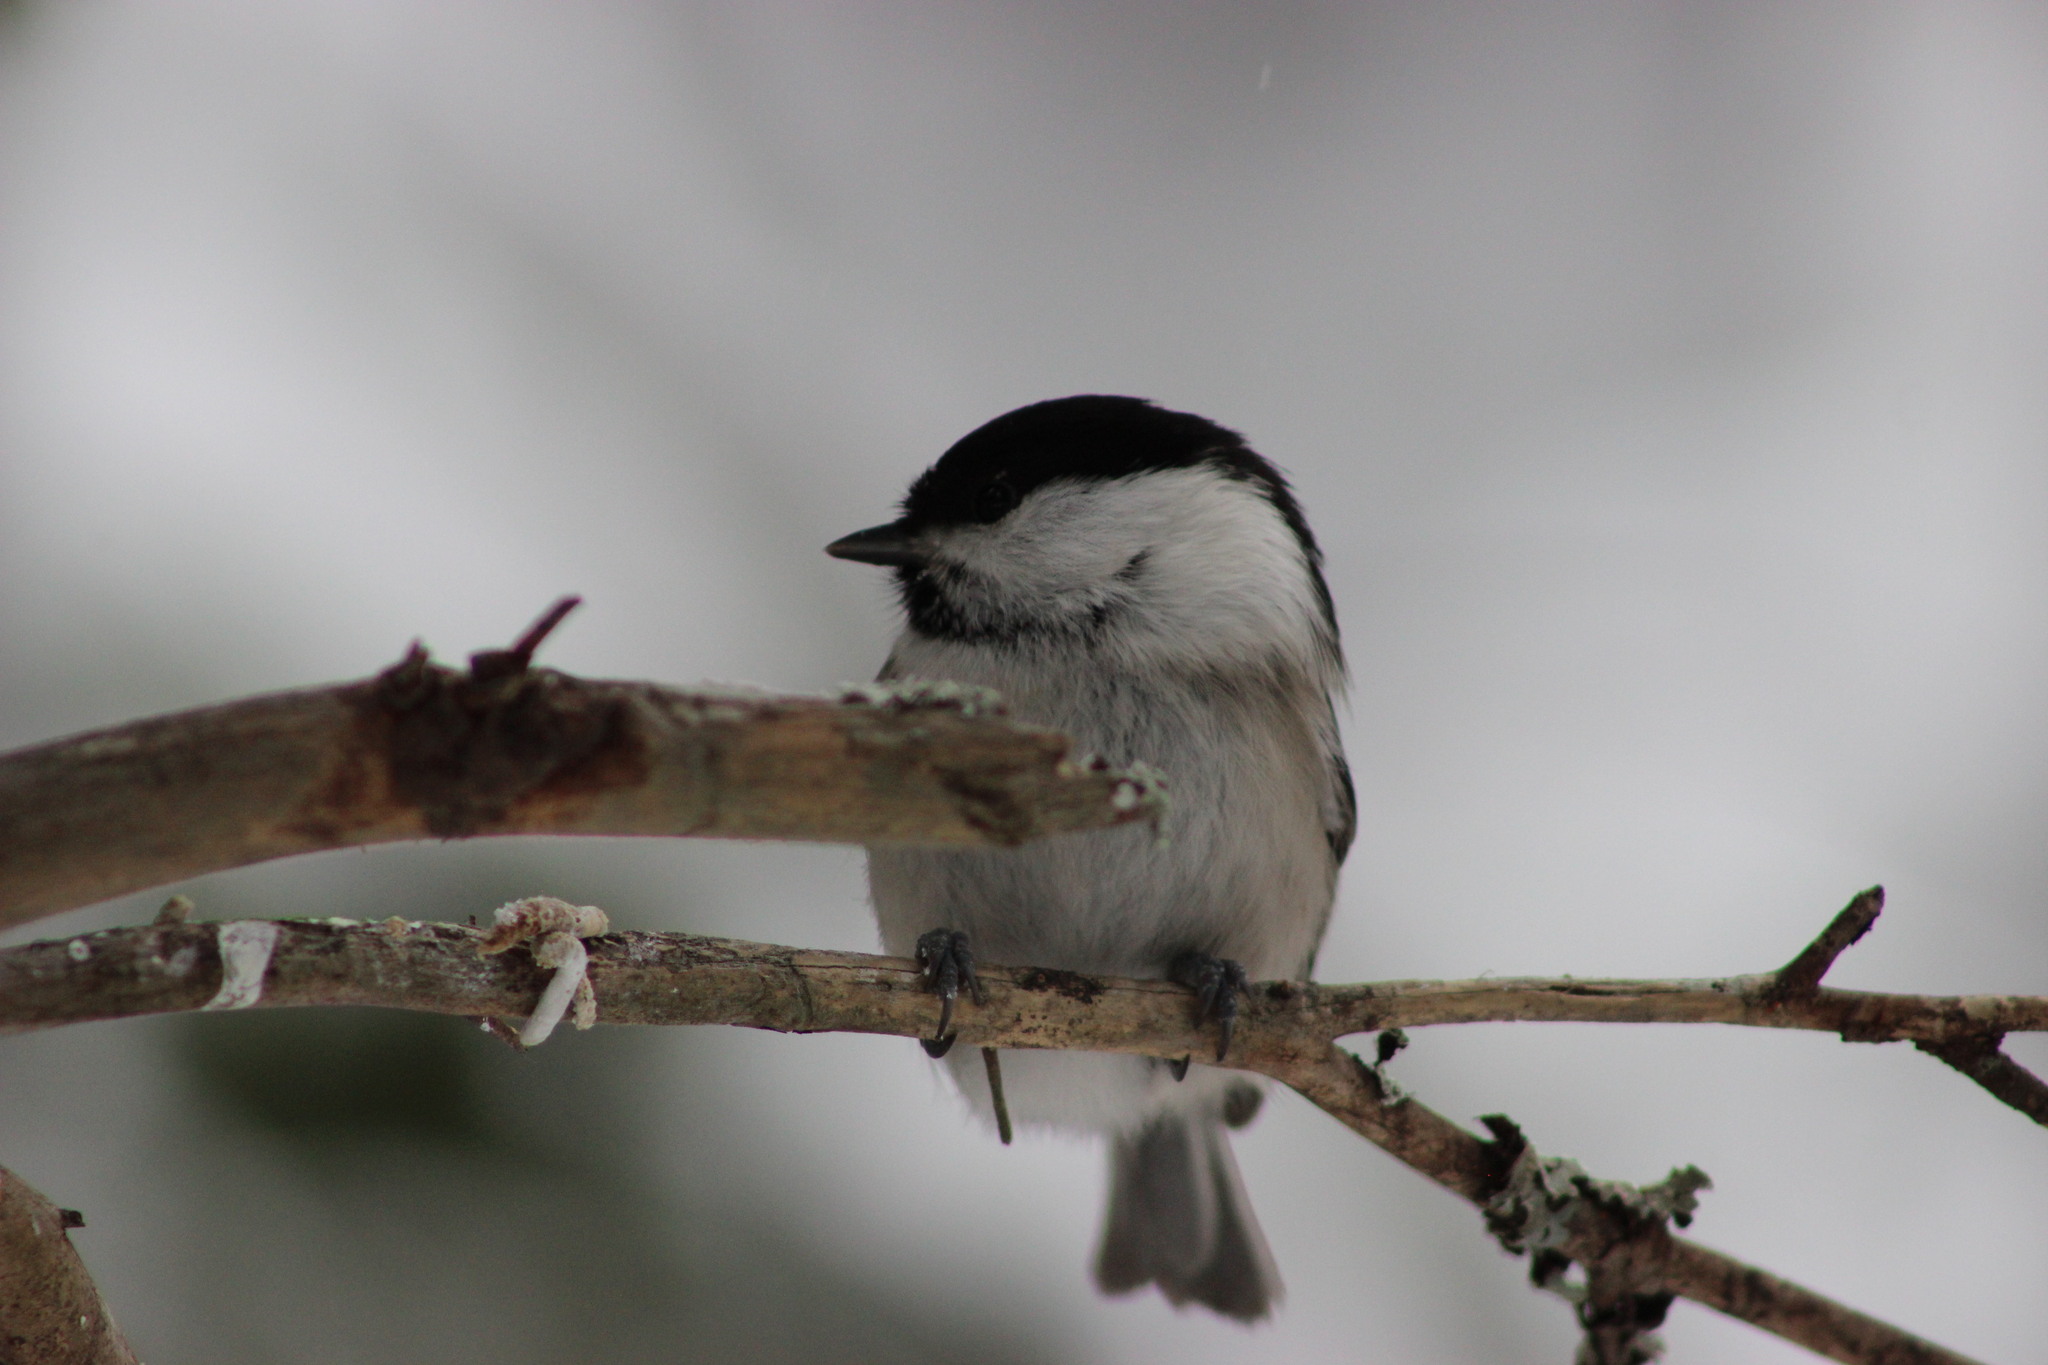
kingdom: Animalia
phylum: Chordata
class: Aves
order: Passeriformes
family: Paridae
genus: Poecile
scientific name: Poecile montanus
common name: Willow tit
